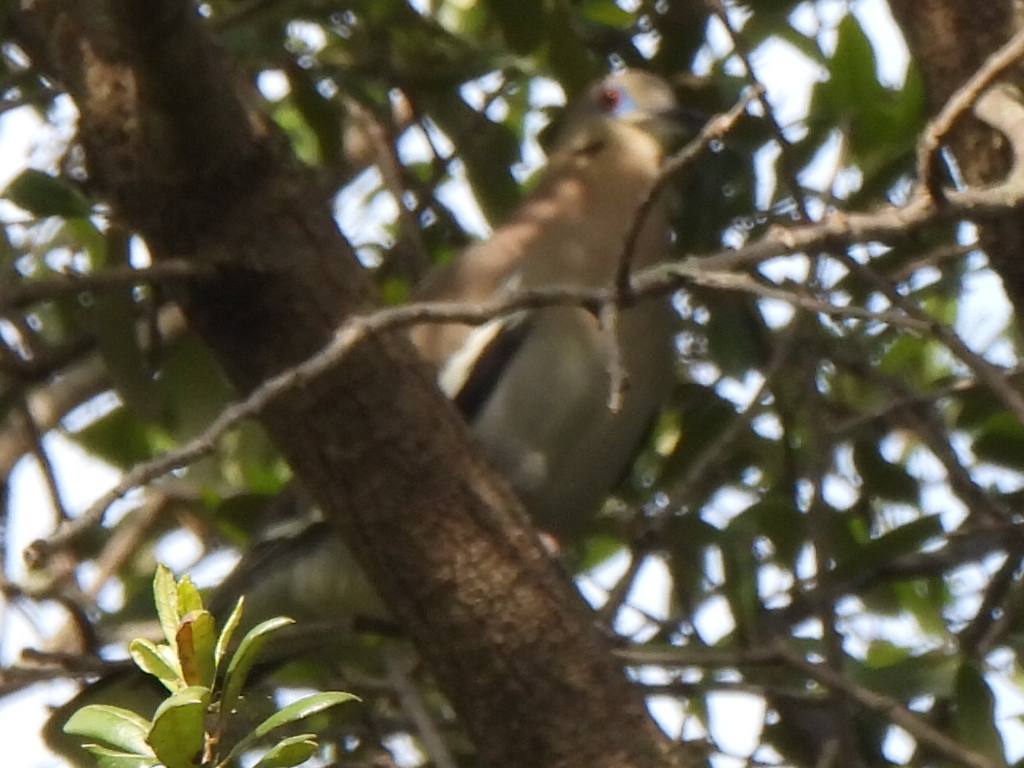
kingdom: Animalia
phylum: Chordata
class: Aves
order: Columbiformes
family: Columbidae
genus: Zenaida
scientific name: Zenaida asiatica
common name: White-winged dove
